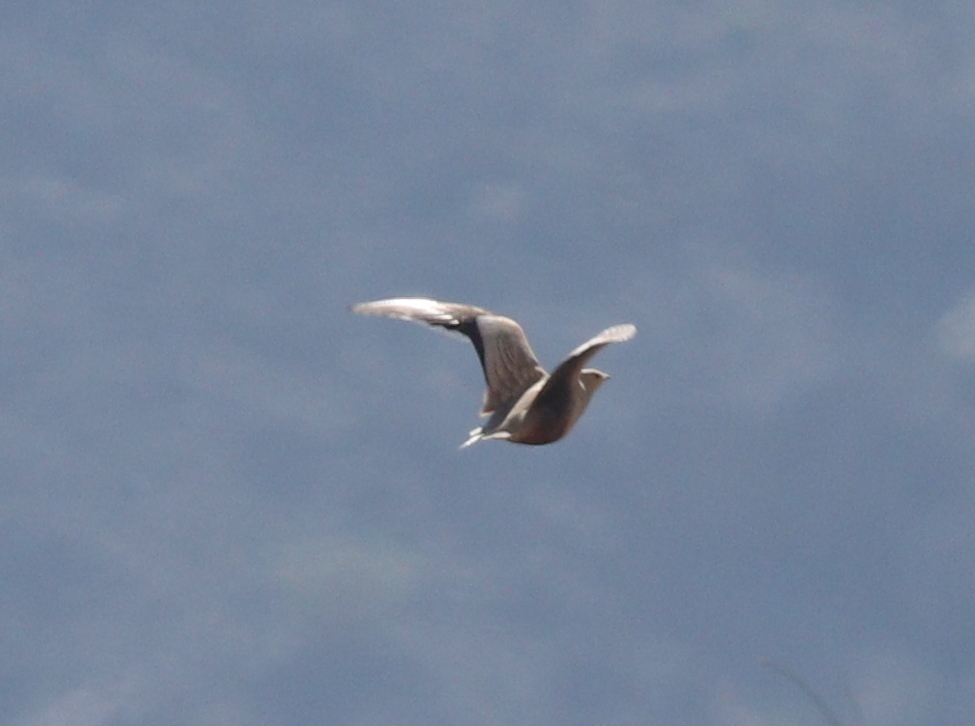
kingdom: Animalia
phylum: Chordata
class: Aves
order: Pteroclidiformes
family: Pteroclididae
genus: Pterocles
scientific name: Pterocles exustus
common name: Chestnut-bellied sandgrouse
